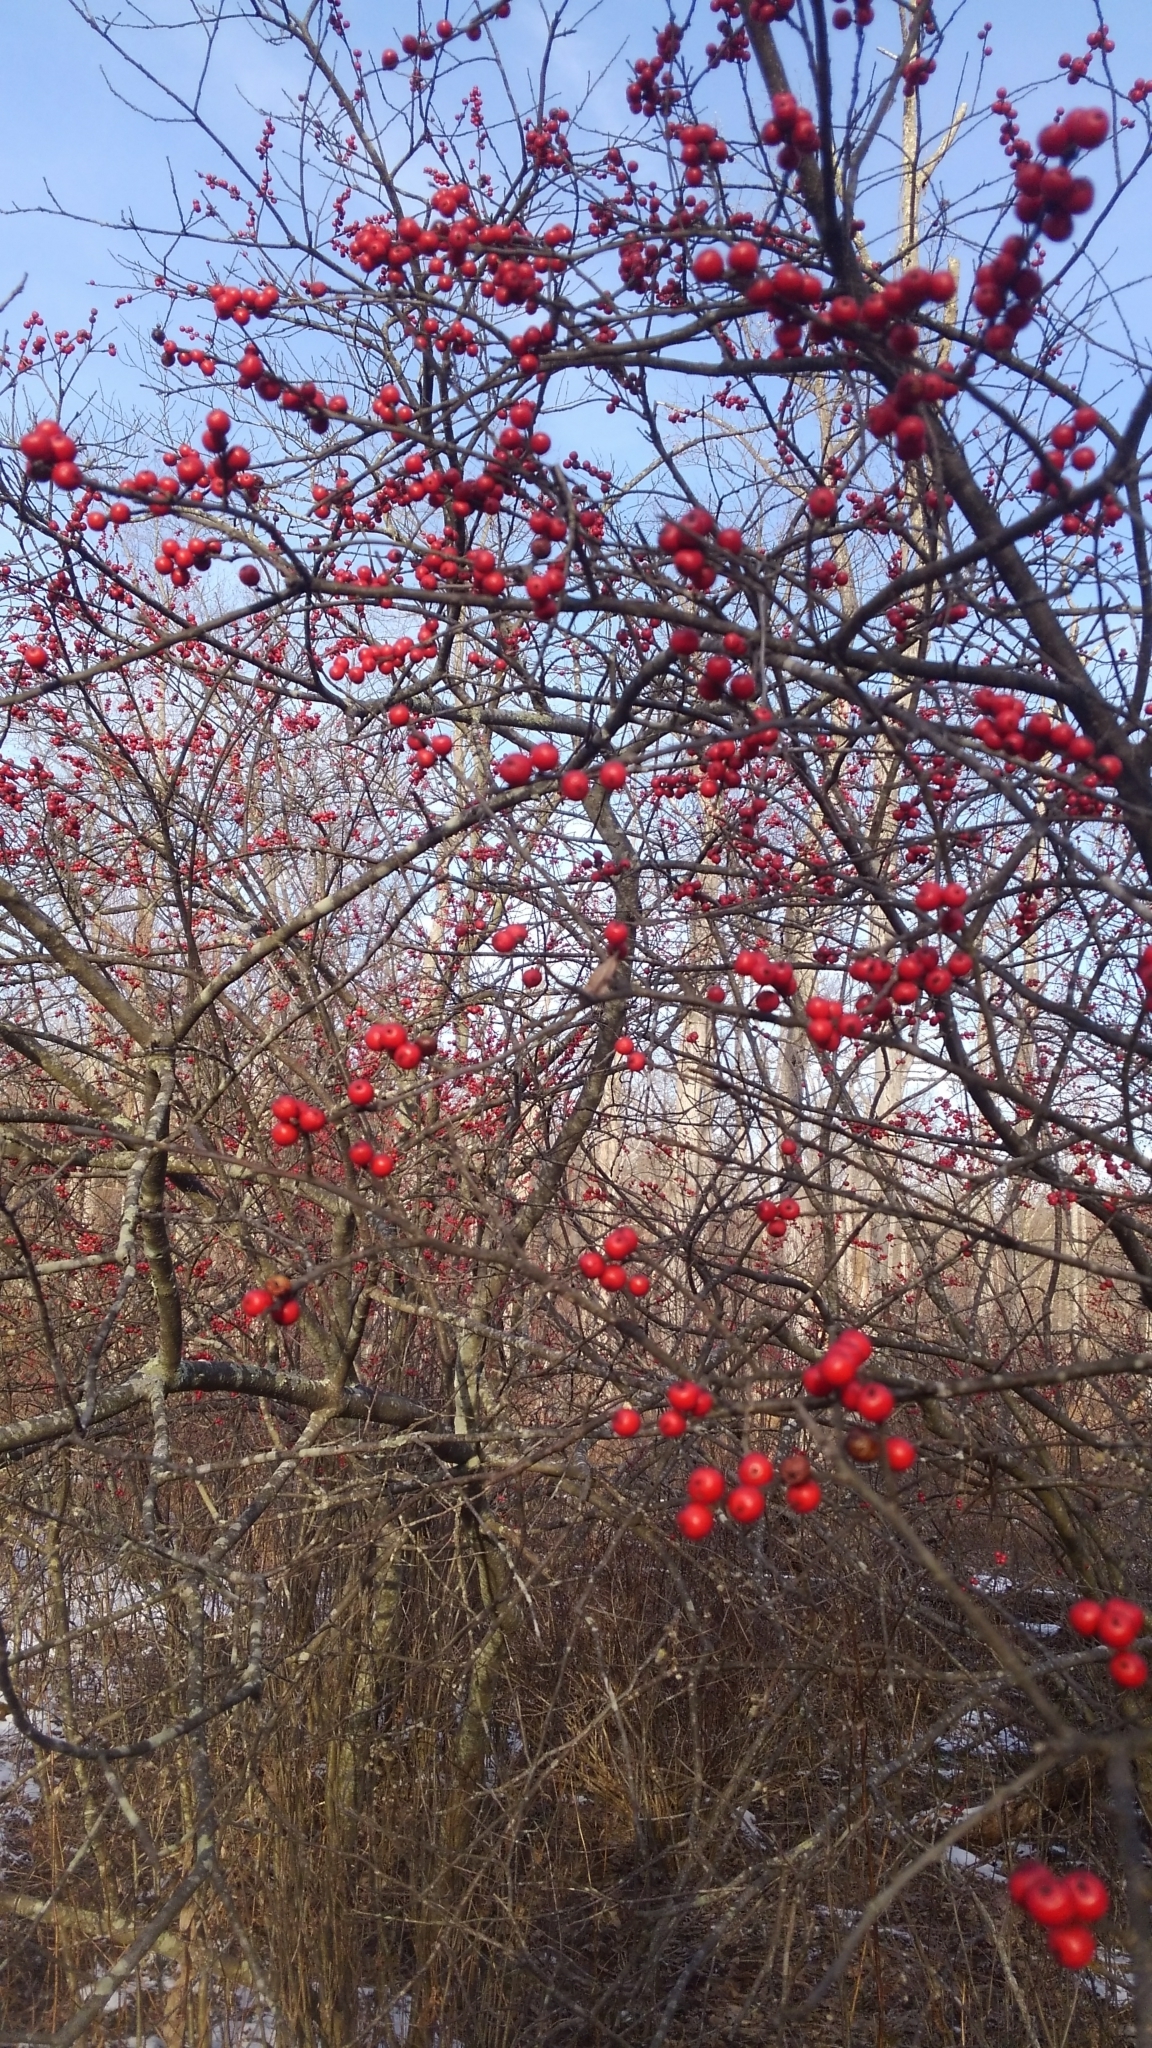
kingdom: Plantae
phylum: Tracheophyta
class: Magnoliopsida
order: Aquifoliales
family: Aquifoliaceae
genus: Ilex
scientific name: Ilex verticillata
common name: Virginia winterberry
